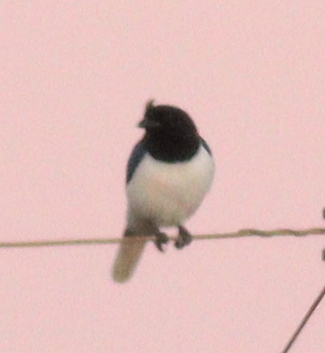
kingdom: Animalia
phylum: Chordata
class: Aves
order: Passeriformes
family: Corvidae
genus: Cyanocorax
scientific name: Cyanocorax cristatellus
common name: Curl-crested jay
